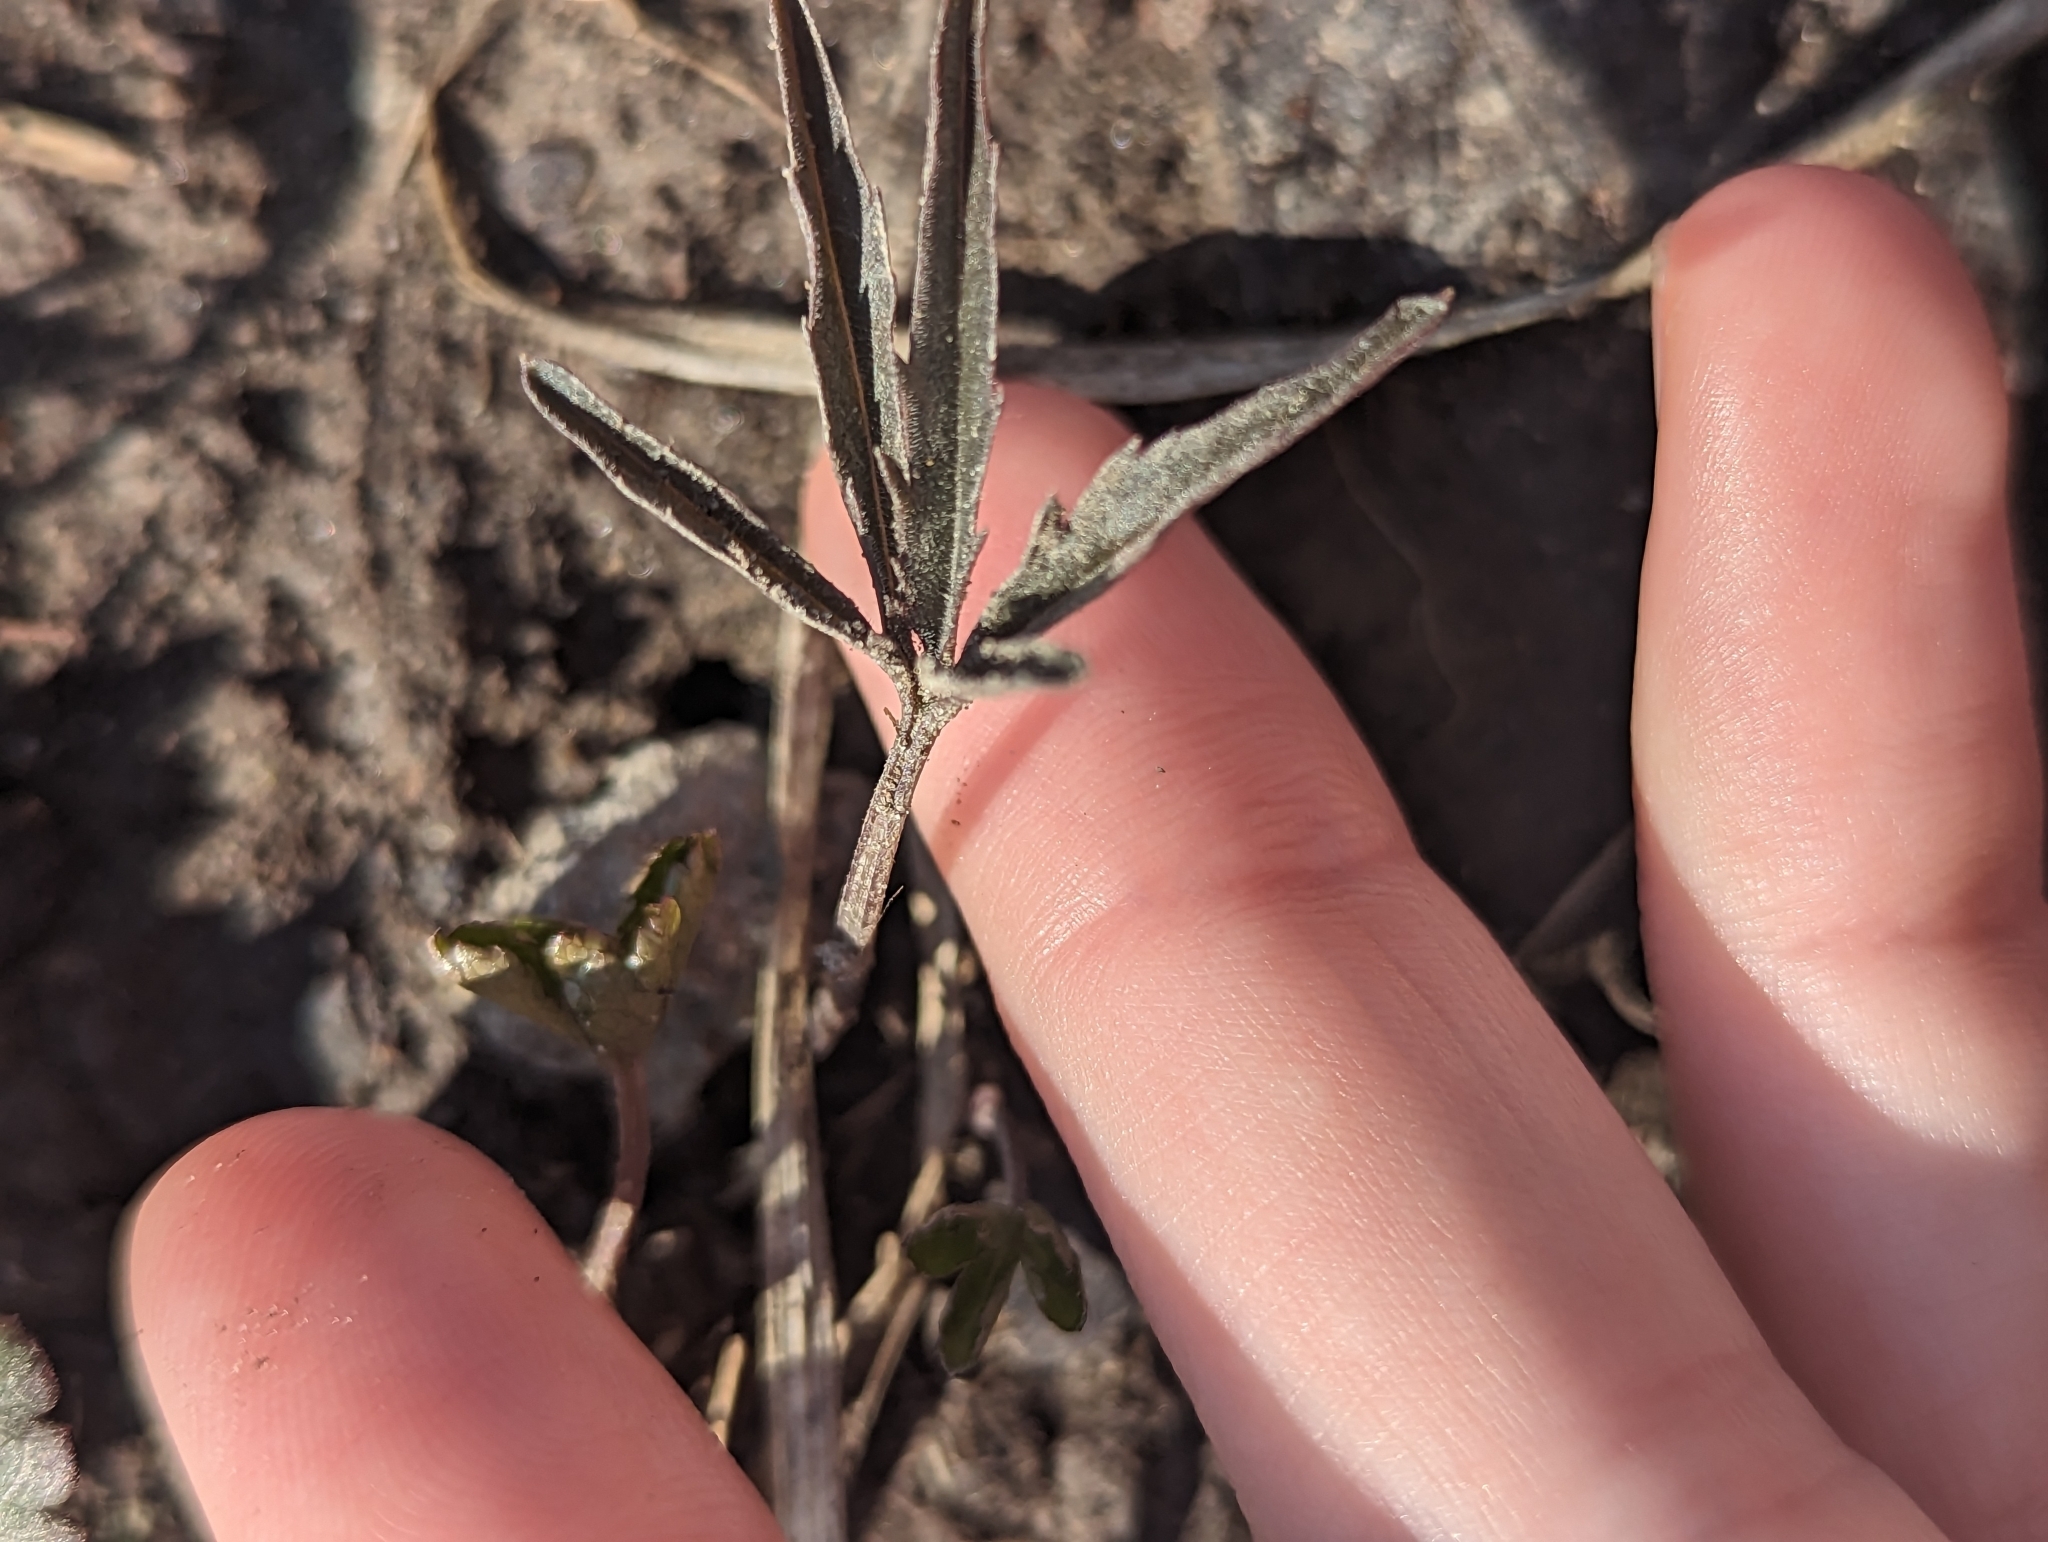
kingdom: Plantae
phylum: Tracheophyta
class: Magnoliopsida
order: Brassicales
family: Brassicaceae
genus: Cardamine
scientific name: Cardamine concatenata
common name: Cut-leaf toothcup
